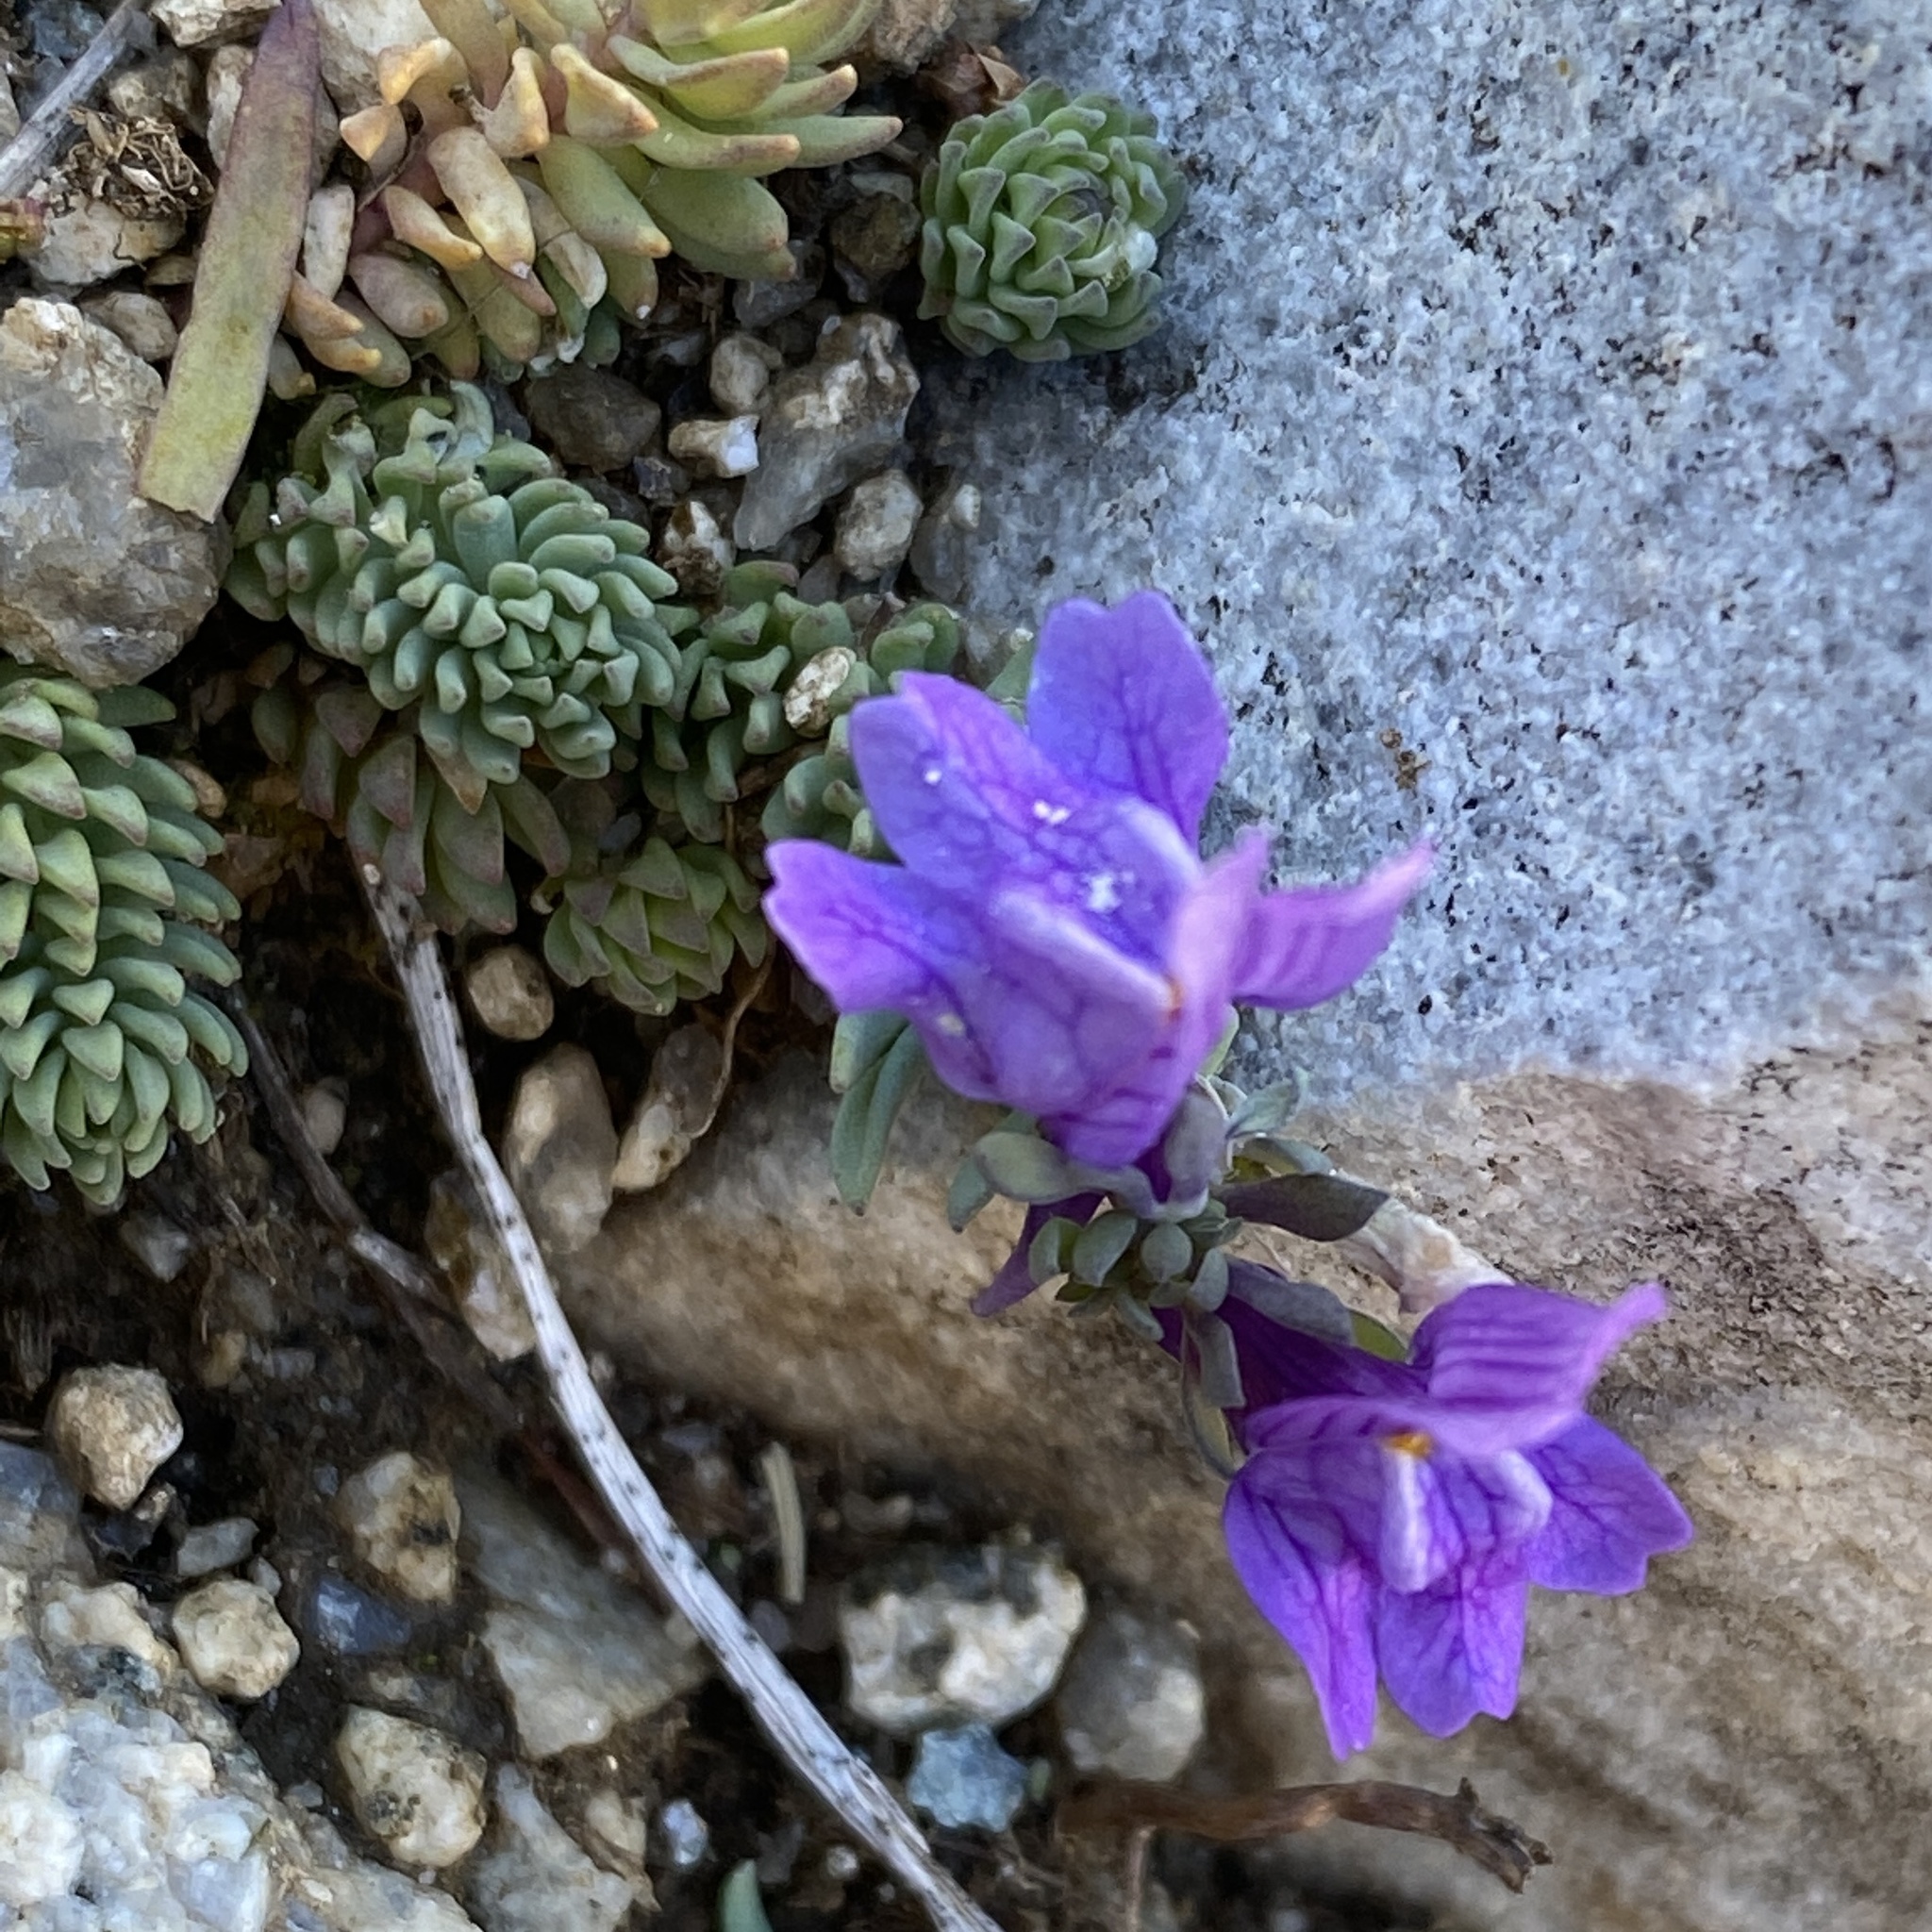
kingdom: Plantae
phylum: Tracheophyta
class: Magnoliopsida
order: Lamiales
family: Plantaginaceae
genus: Linaria
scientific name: Linaria alpina
